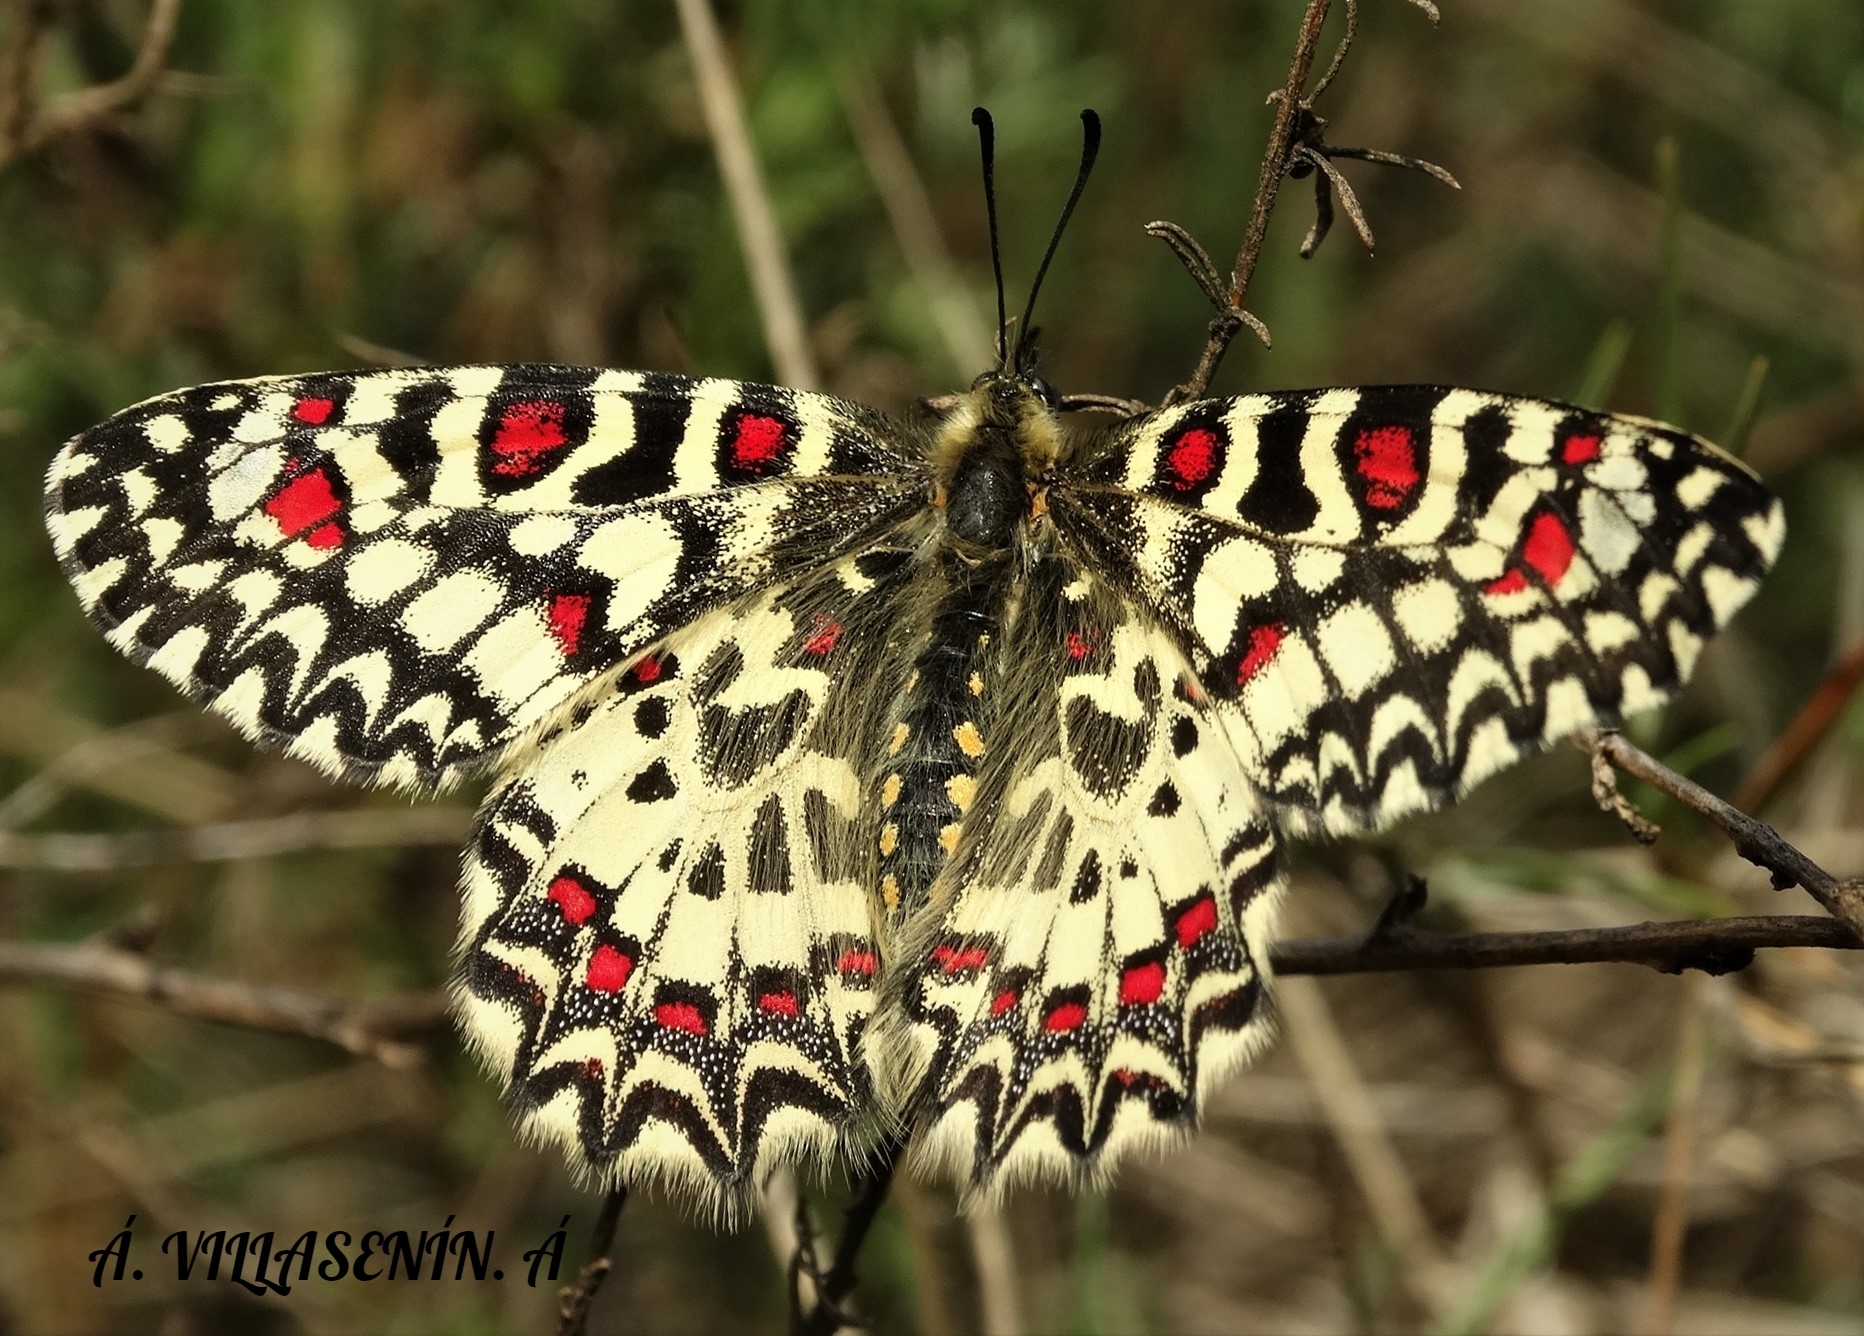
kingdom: Animalia
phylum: Arthropoda
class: Insecta
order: Lepidoptera
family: Papilionidae
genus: Zerynthia
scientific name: Zerynthia rumina
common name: Spanish festoon
